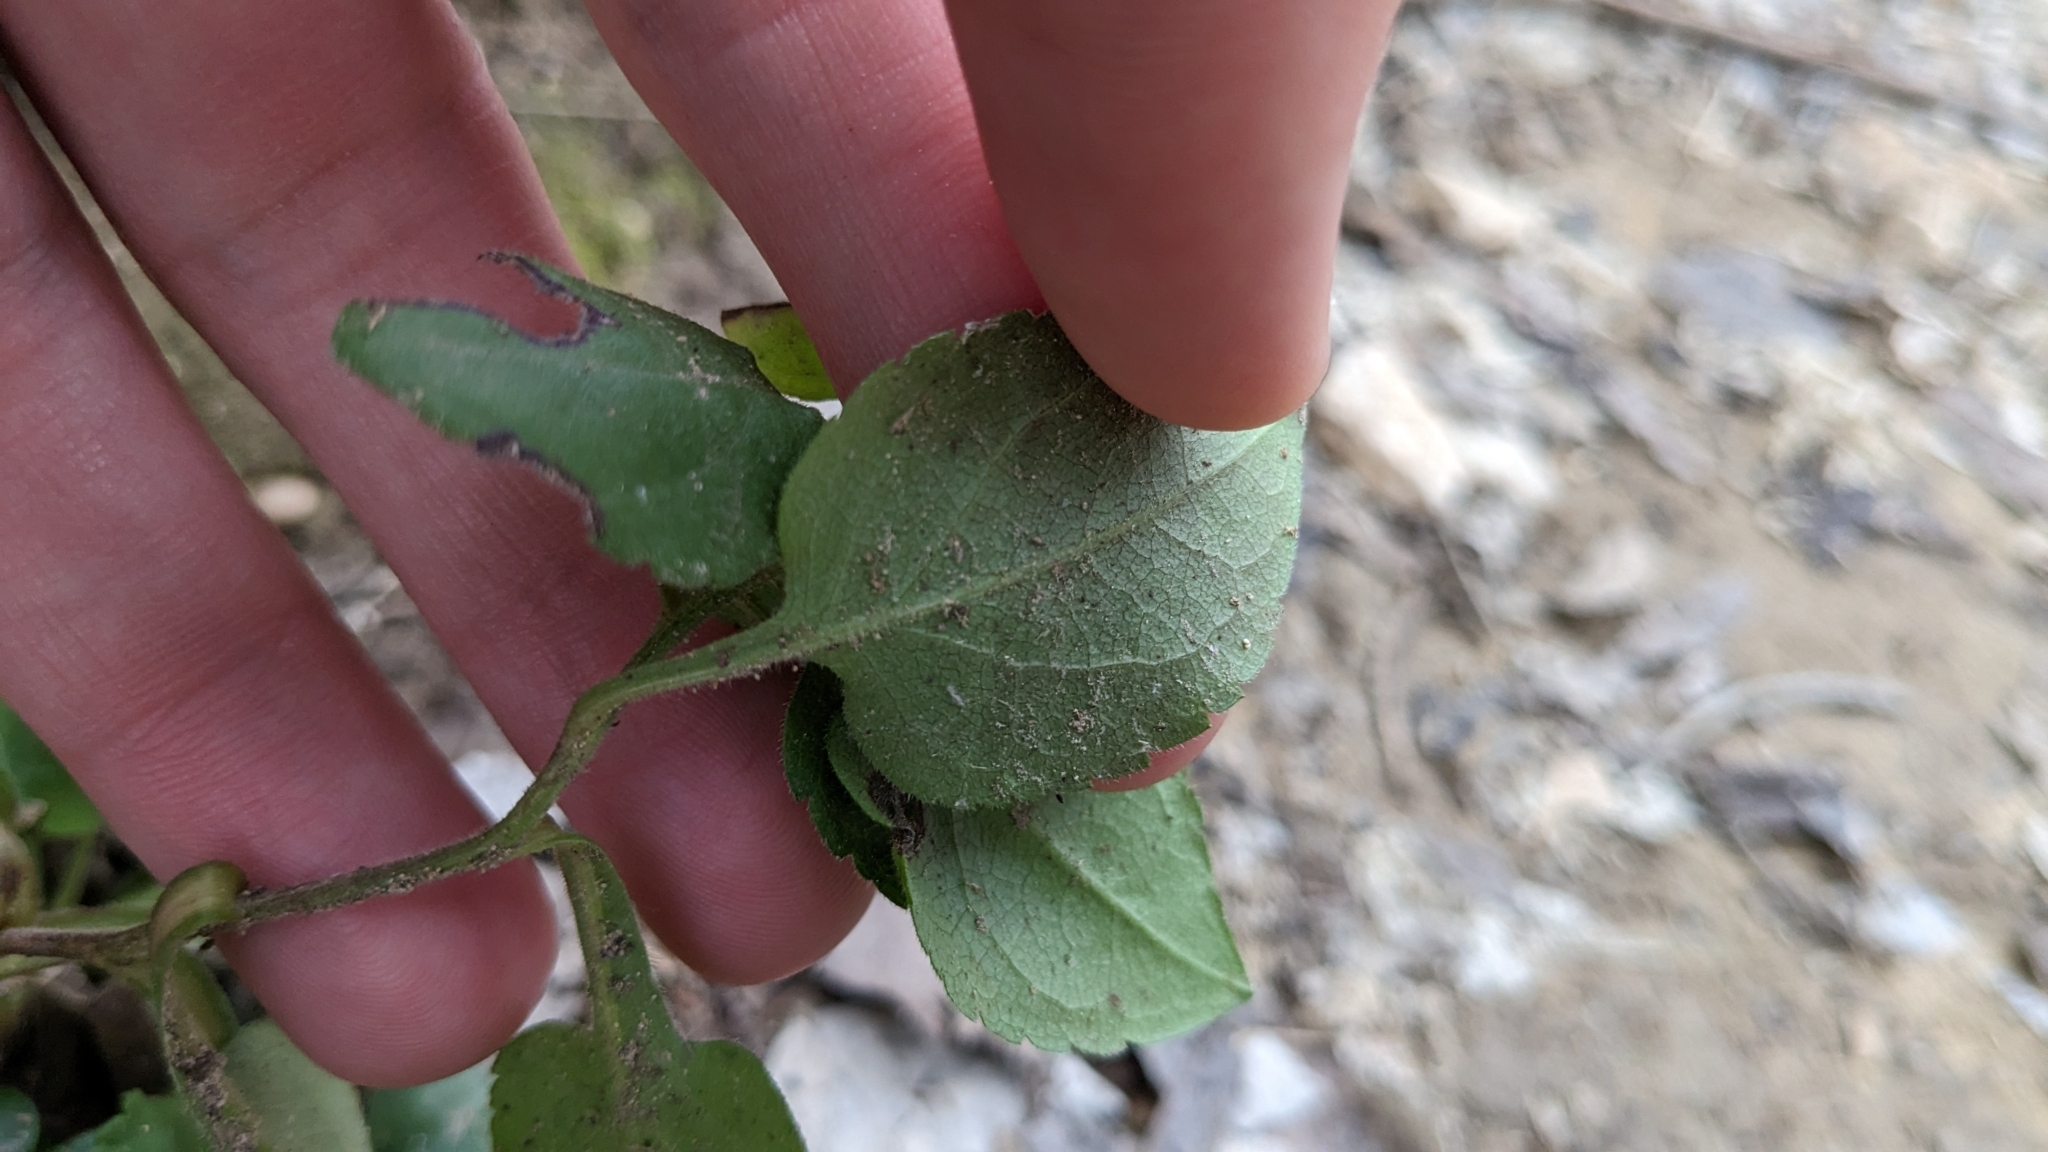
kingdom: Plantae
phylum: Tracheophyta
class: Magnoliopsida
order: Asterales
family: Asteraceae
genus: Symphyotrichum
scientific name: Symphyotrichum drummondii
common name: Drummond's aster
